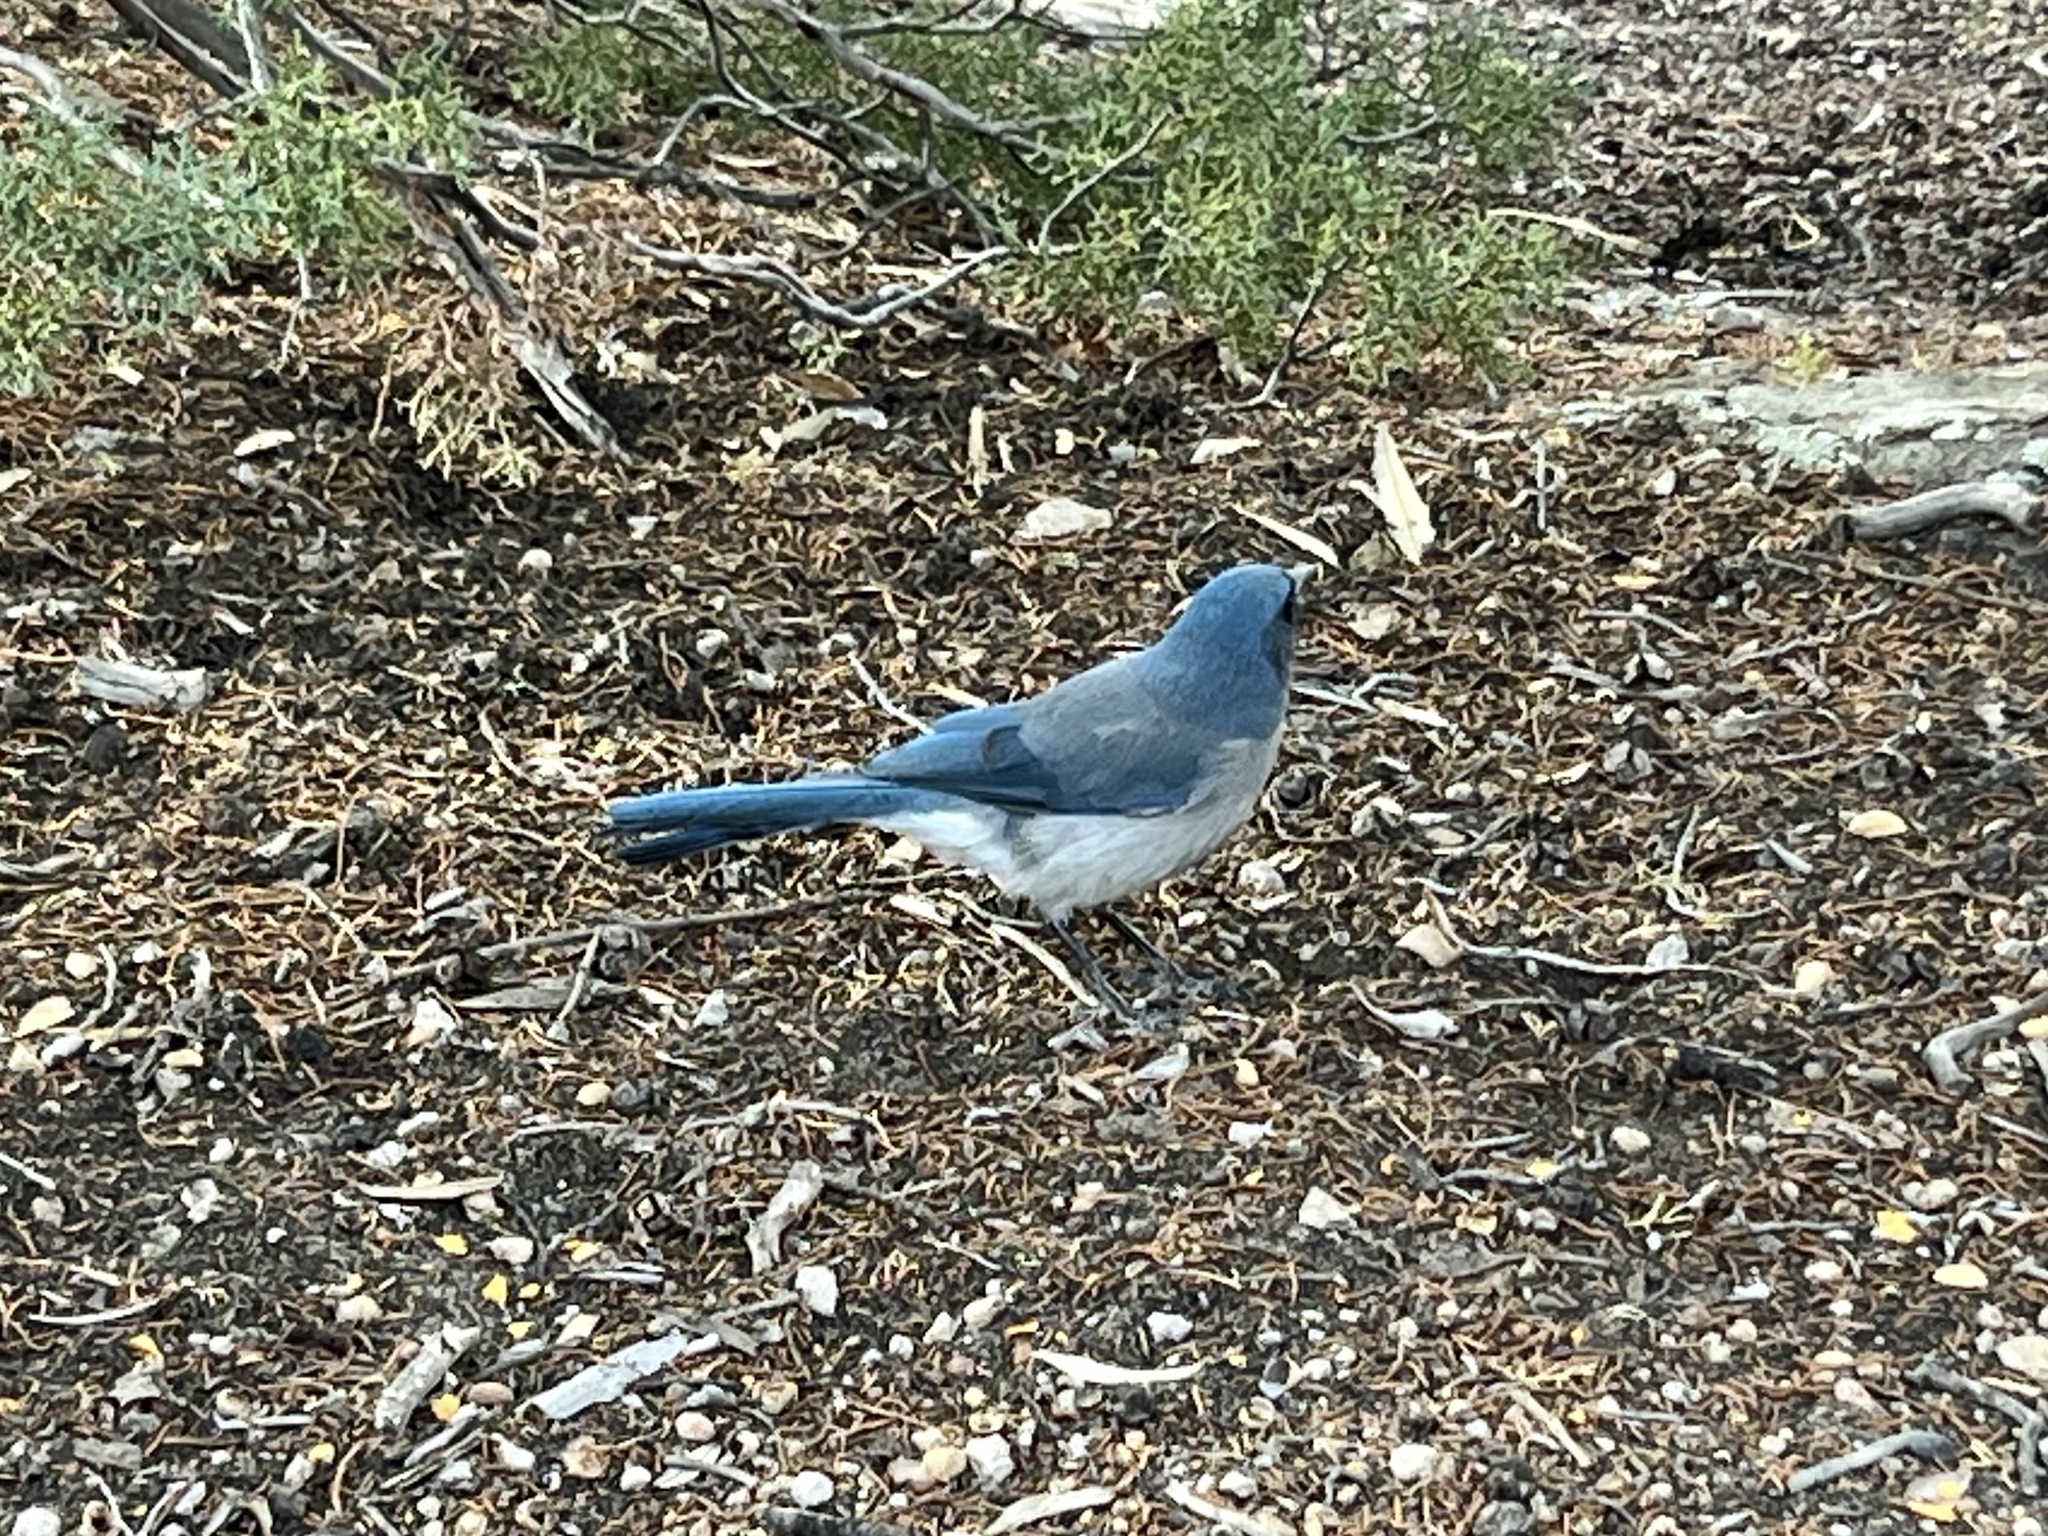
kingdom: Animalia
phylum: Chordata
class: Aves
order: Passeriformes
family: Corvidae
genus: Aphelocoma
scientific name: Aphelocoma wollweberi
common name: Mexican jay
